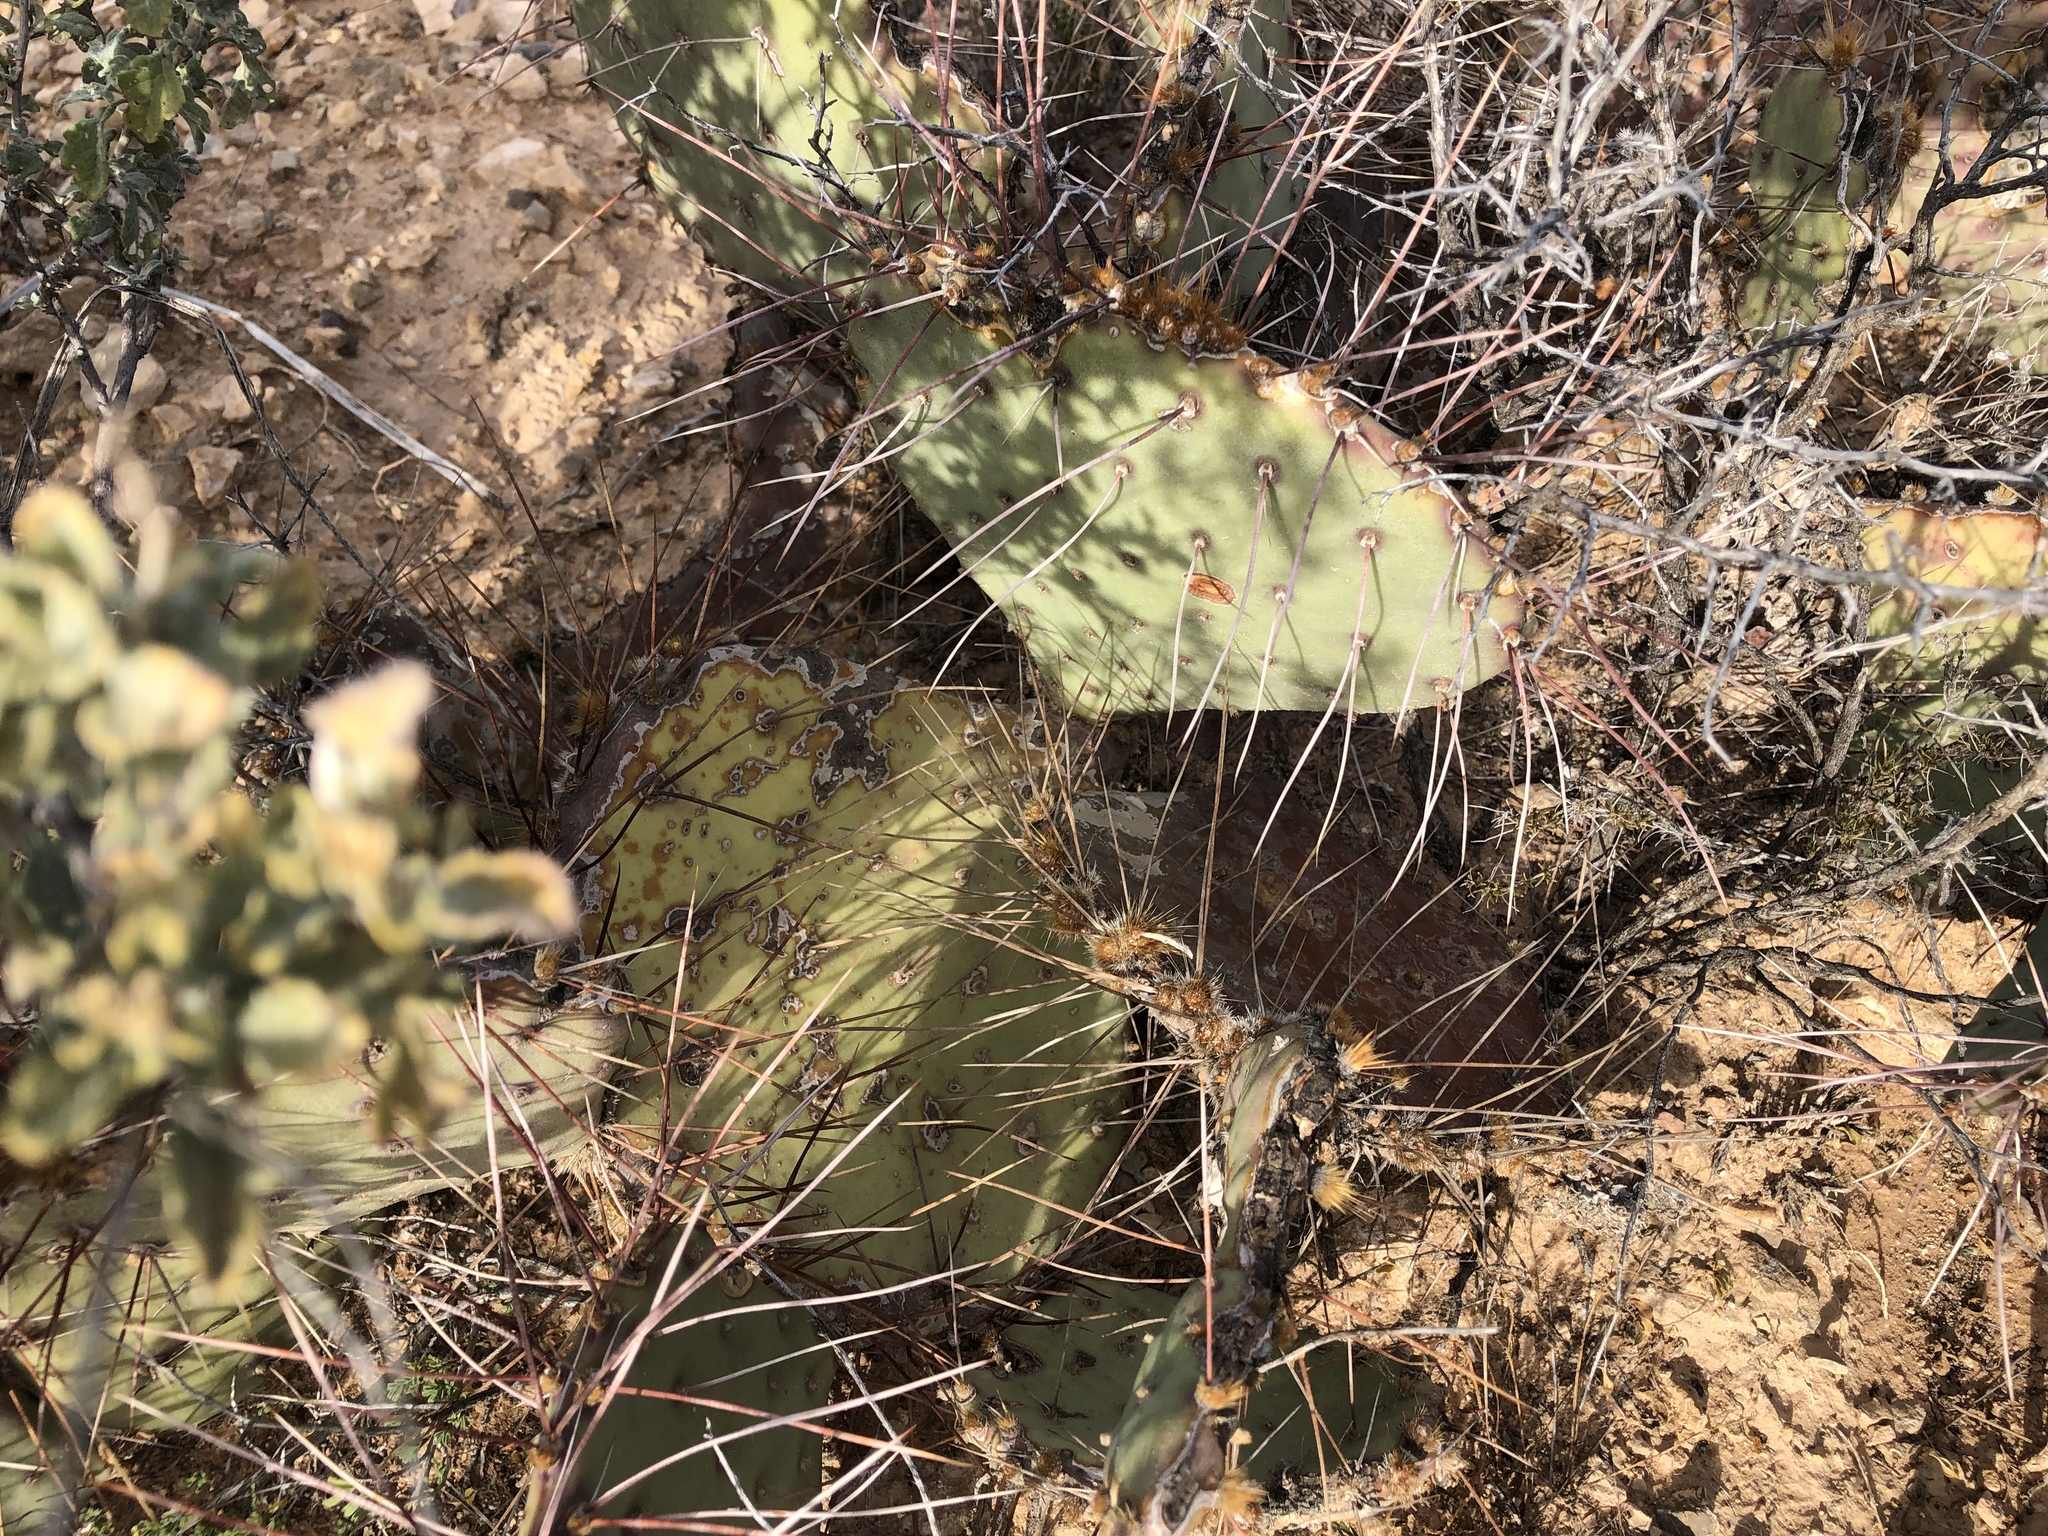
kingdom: Plantae
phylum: Tracheophyta
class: Magnoliopsida
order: Caryophyllales
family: Cactaceae
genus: Opuntia
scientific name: Opuntia phaeacantha
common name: New mexico prickly-pear
